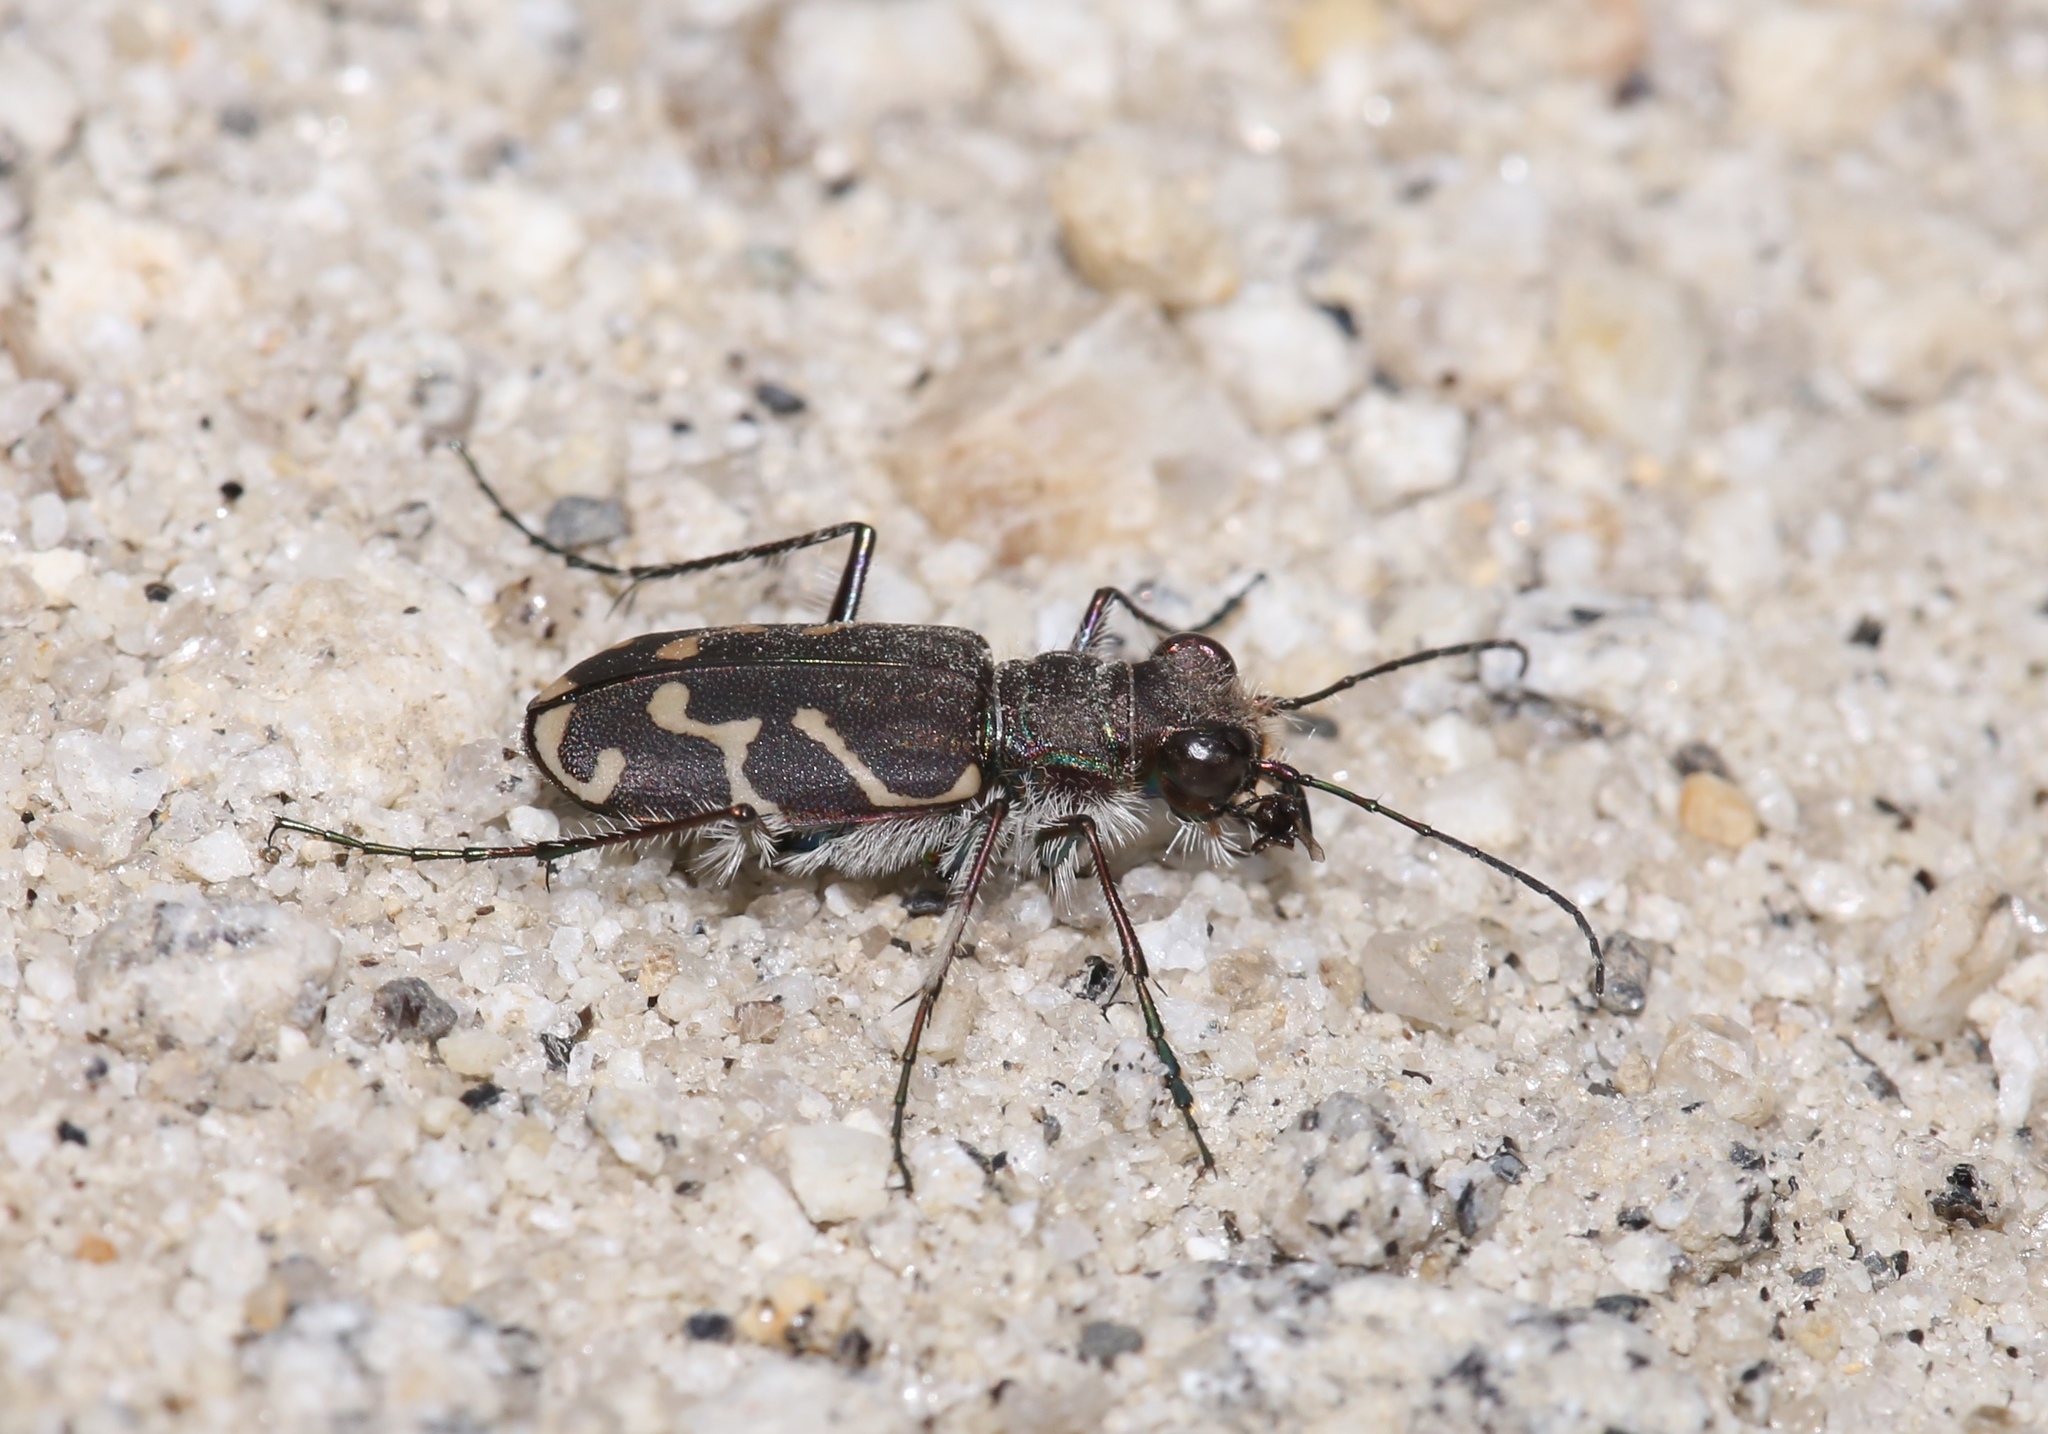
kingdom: Animalia
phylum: Arthropoda
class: Insecta
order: Coleoptera
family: Carabidae
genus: Cicindela
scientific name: Cicindela tranquebarica
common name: Oblique-lined tiger beetle
